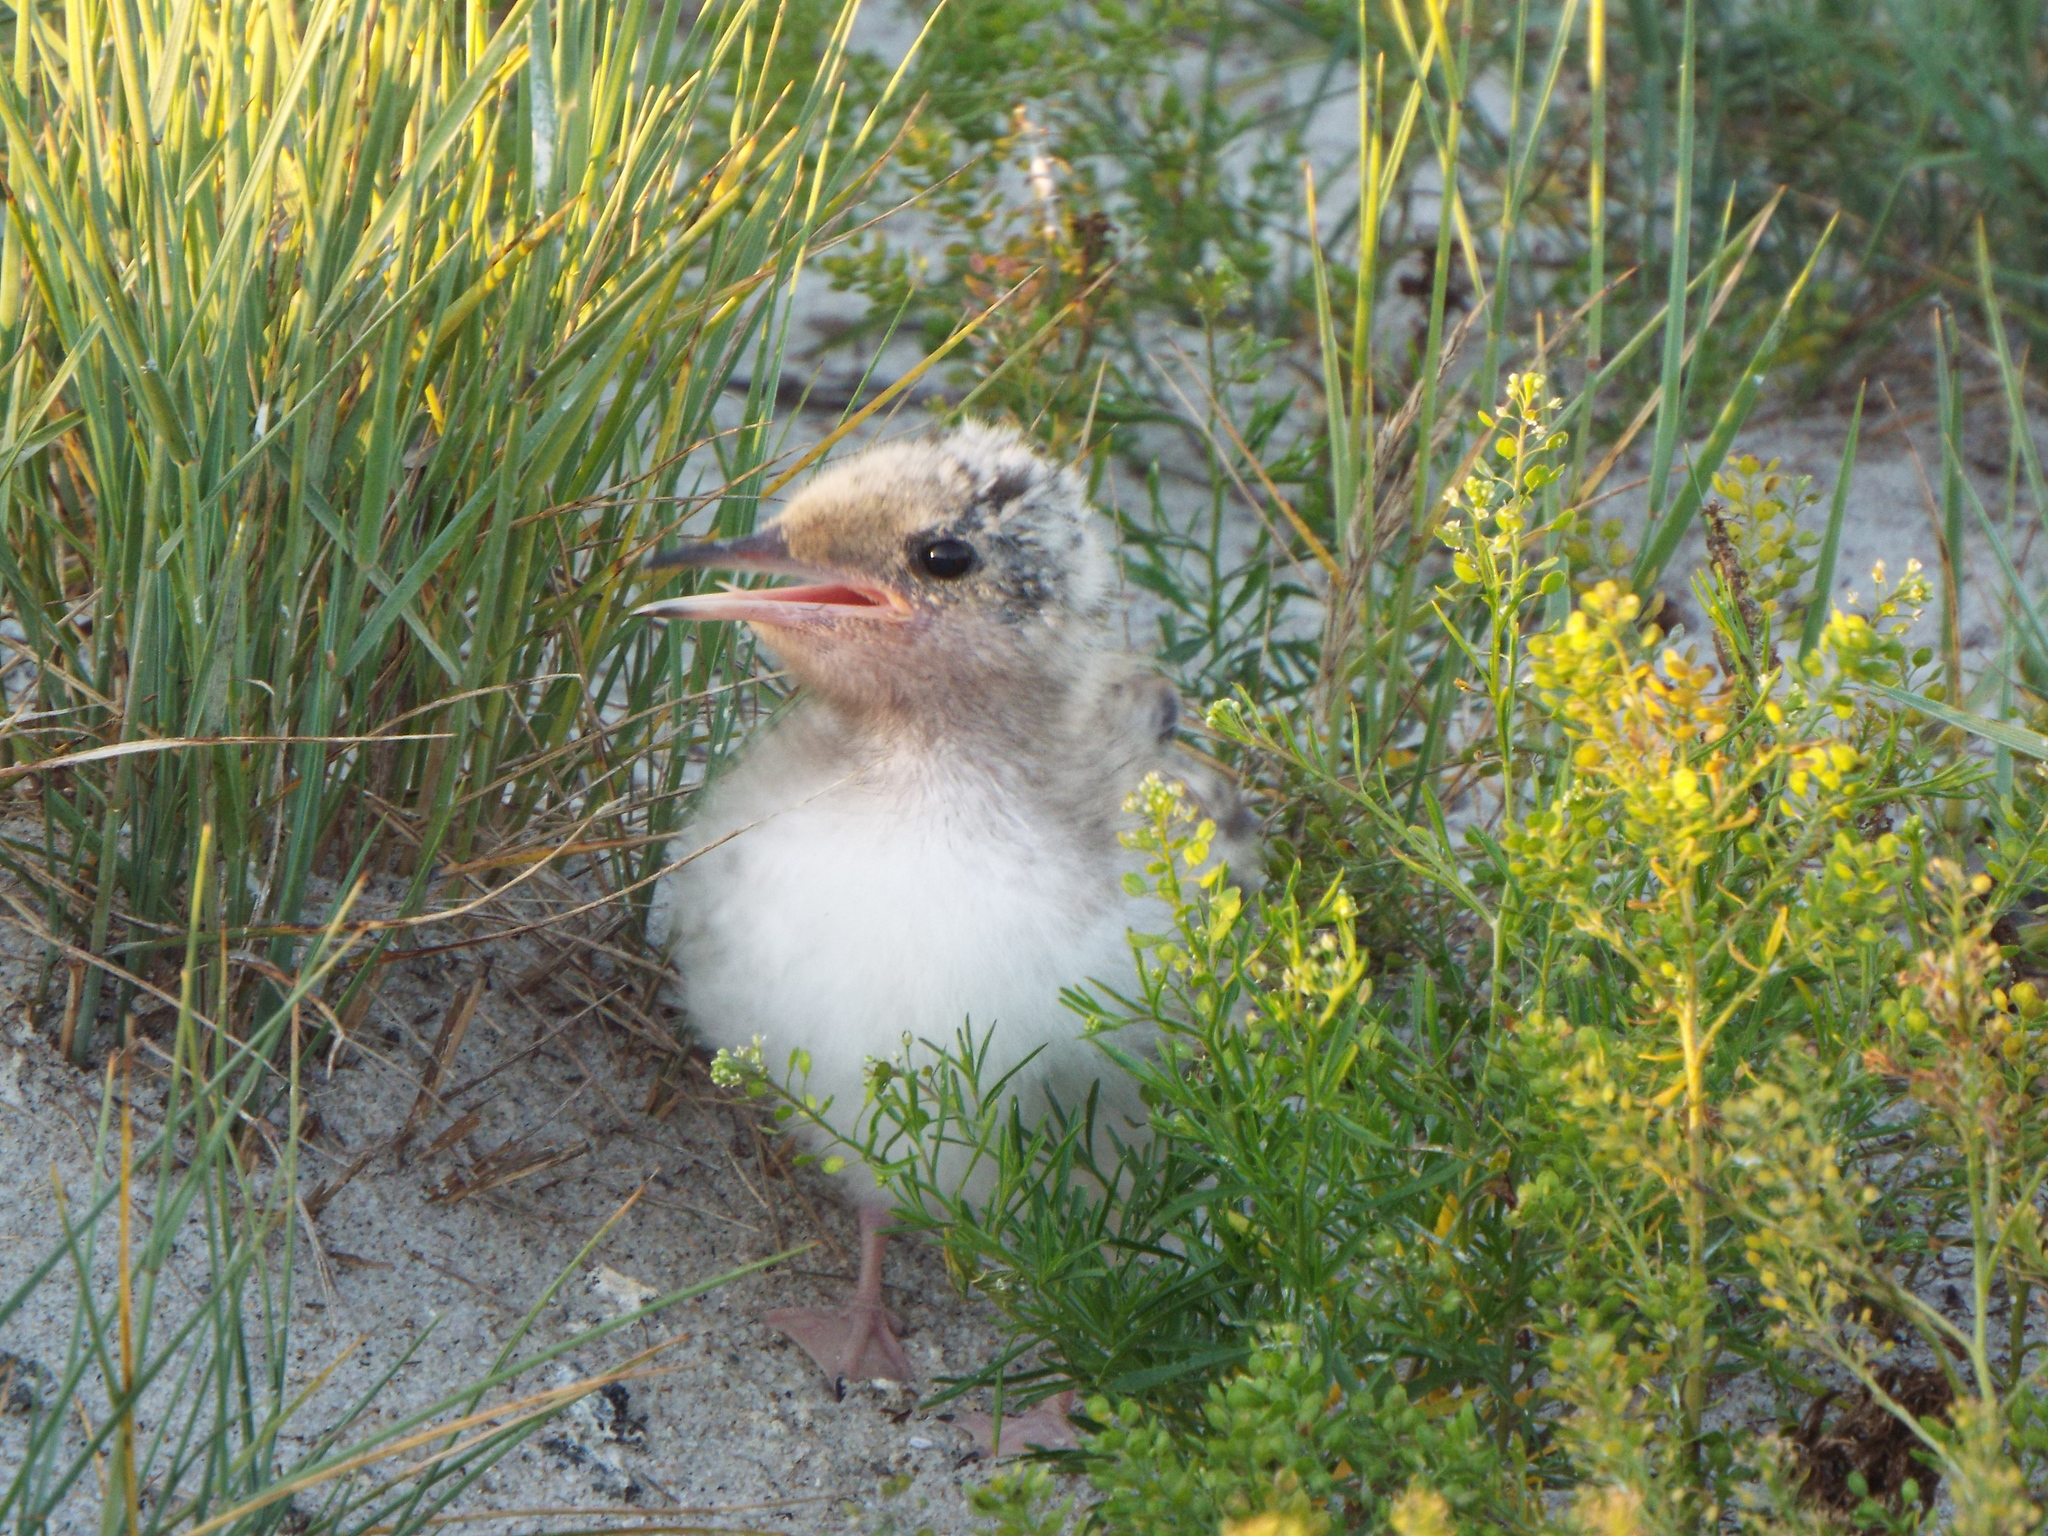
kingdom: Animalia
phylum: Chordata
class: Aves
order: Charadriiformes
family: Laridae
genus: Sterna
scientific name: Sterna hirundo
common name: Common tern
